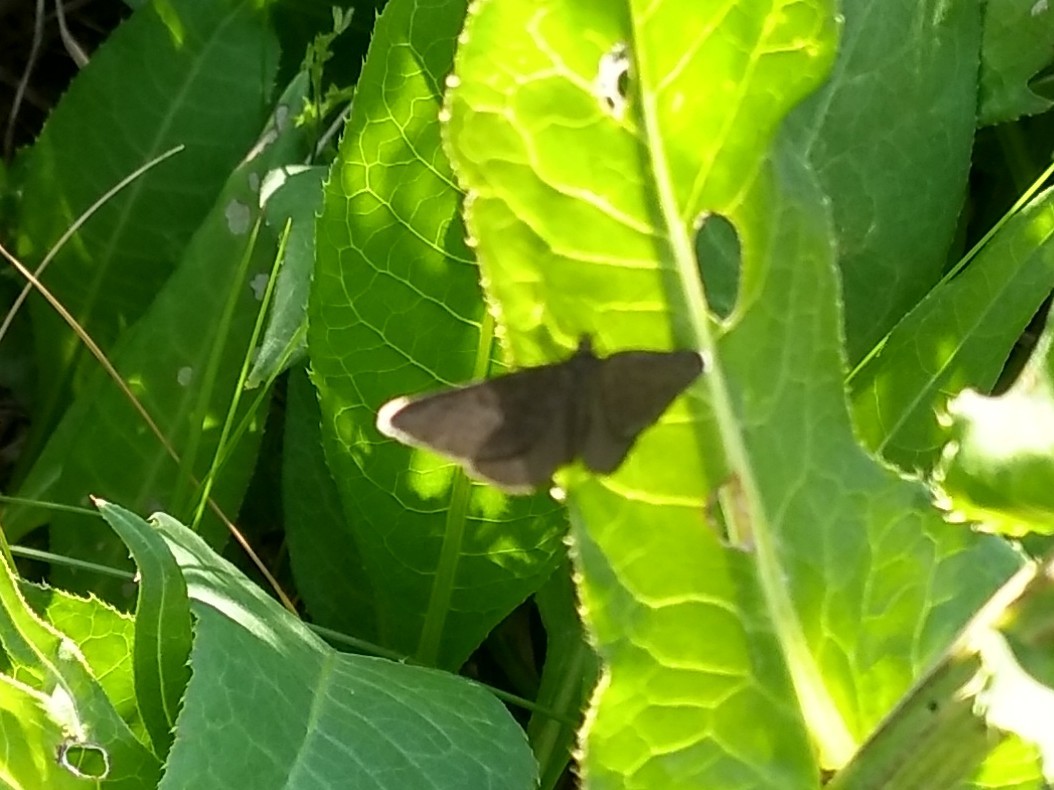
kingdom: Animalia
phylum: Arthropoda
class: Insecta
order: Lepidoptera
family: Geometridae
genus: Odezia
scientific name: Odezia atrata
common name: Chimney sweeper
